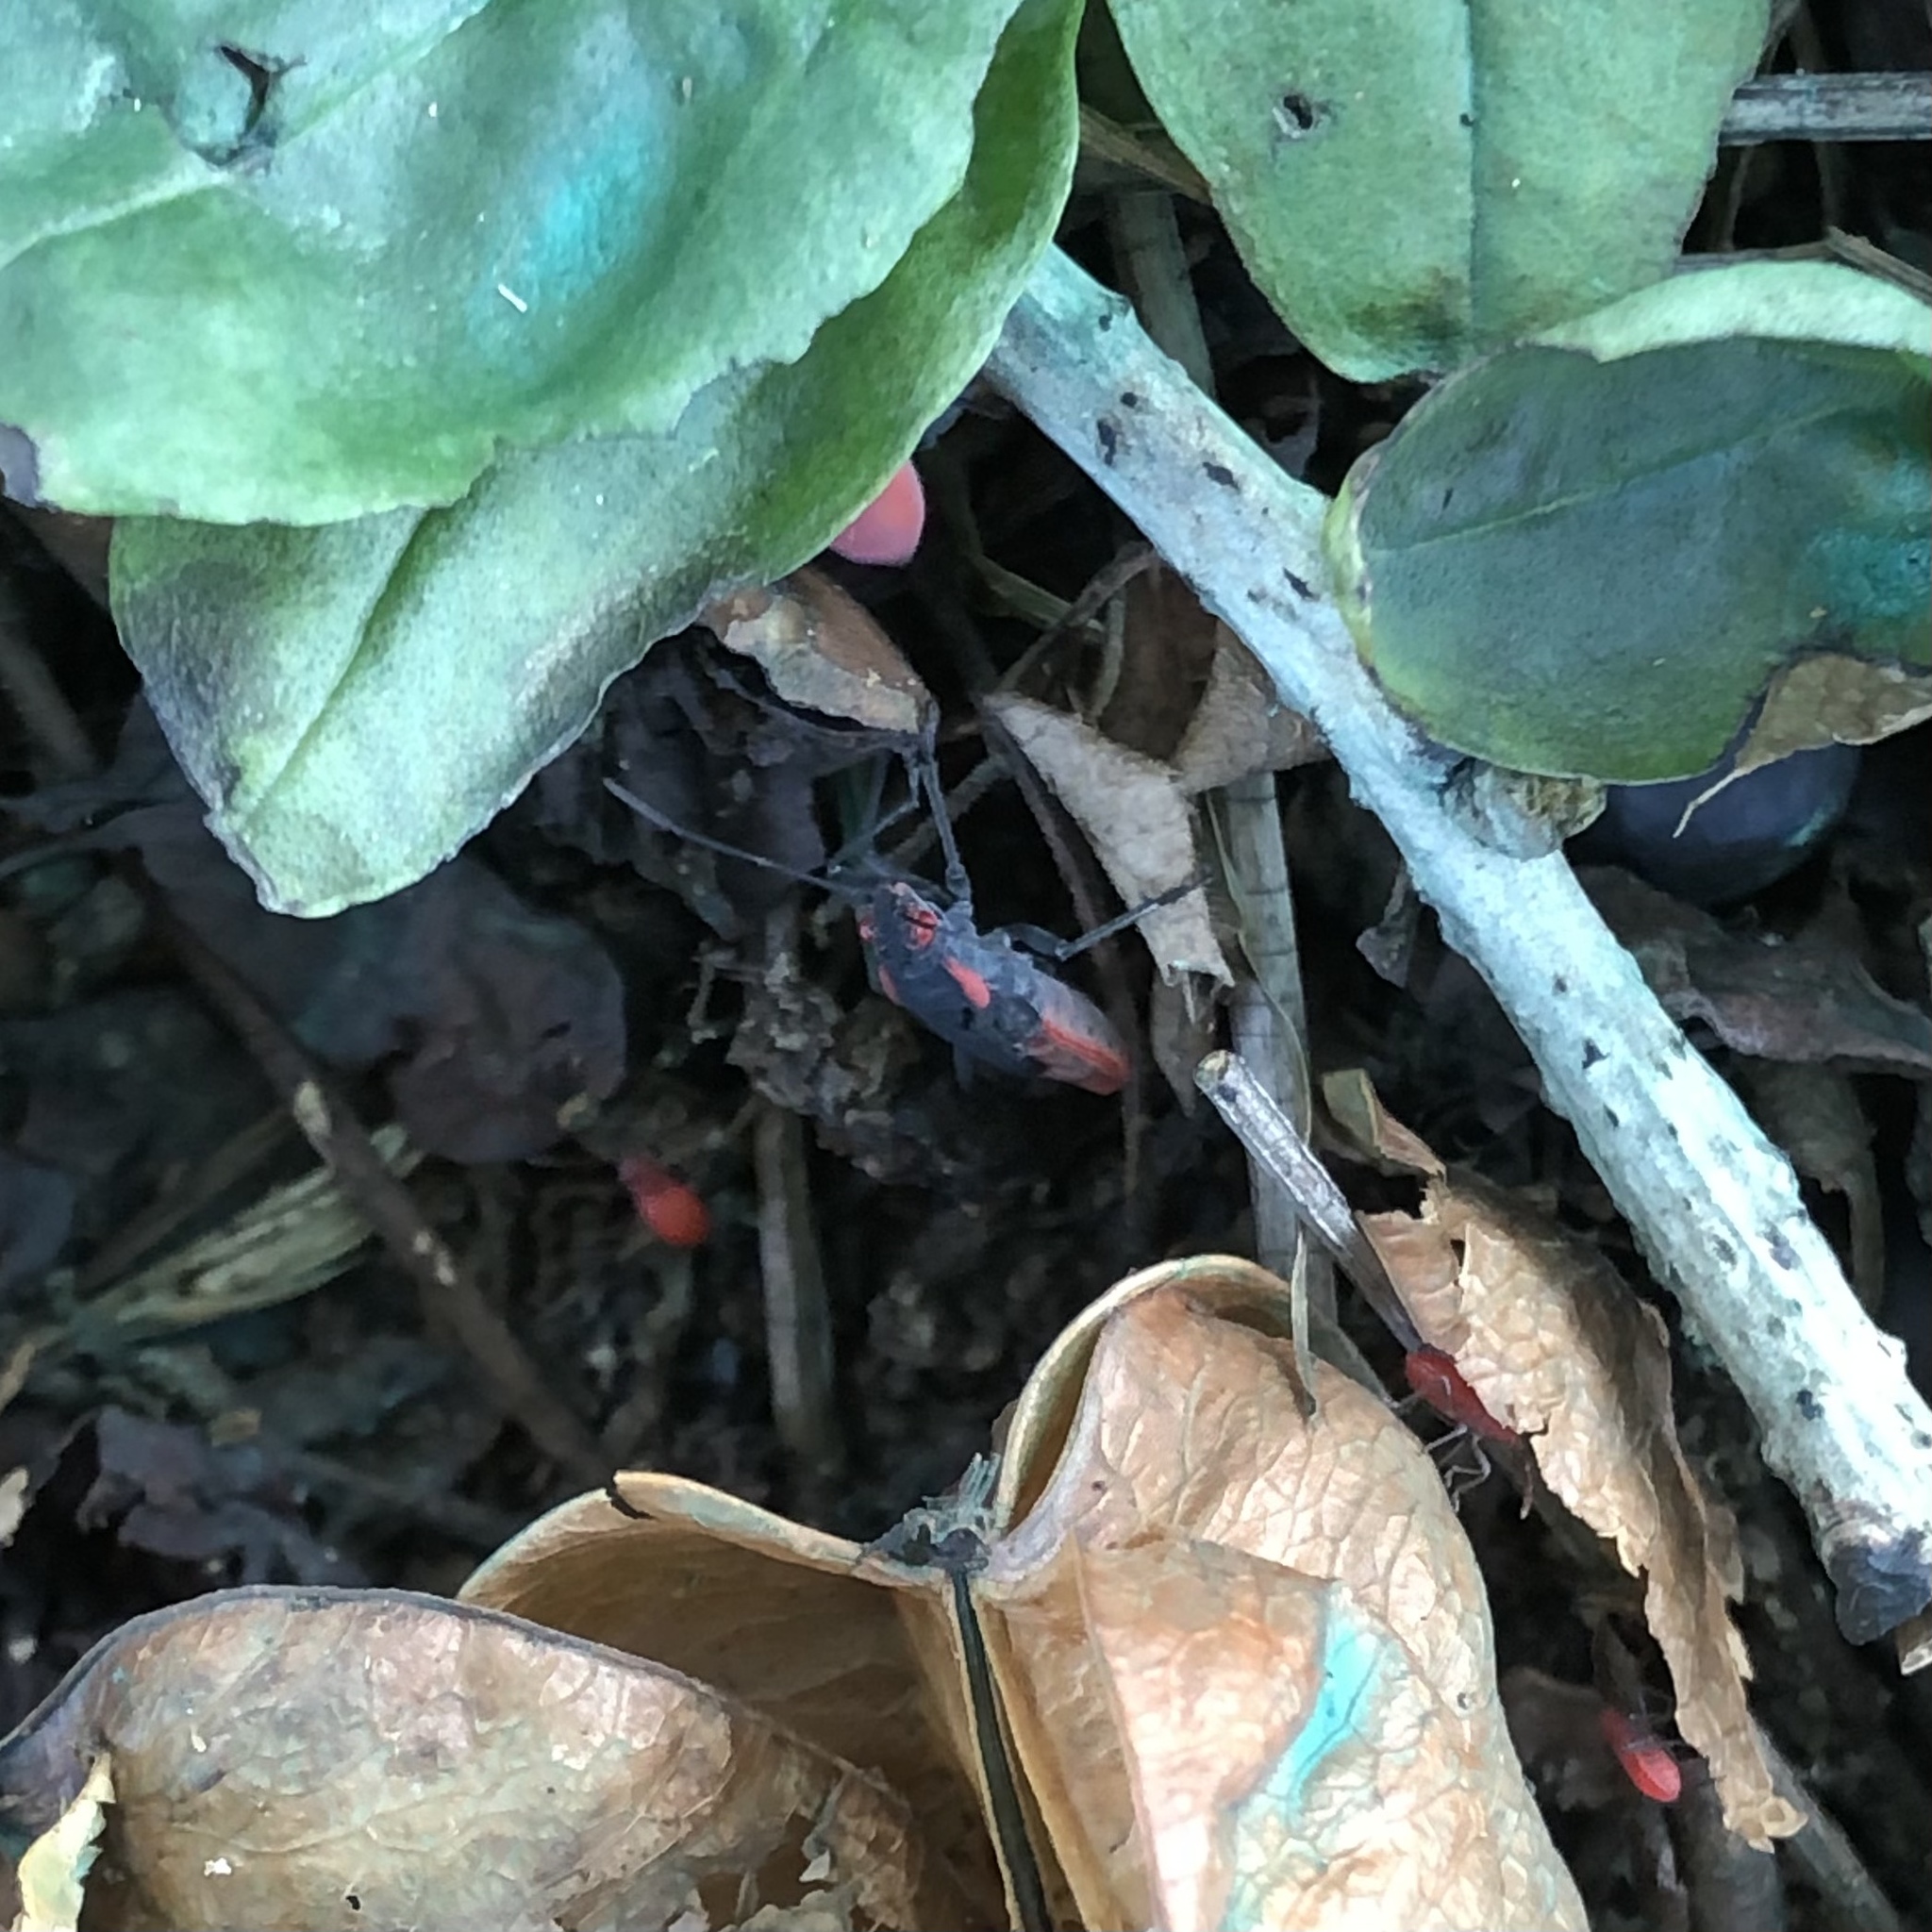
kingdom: Animalia
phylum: Arthropoda
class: Insecta
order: Hemiptera
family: Rhopalidae
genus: Jadera
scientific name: Jadera haematoloma
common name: Red-shouldered bug
